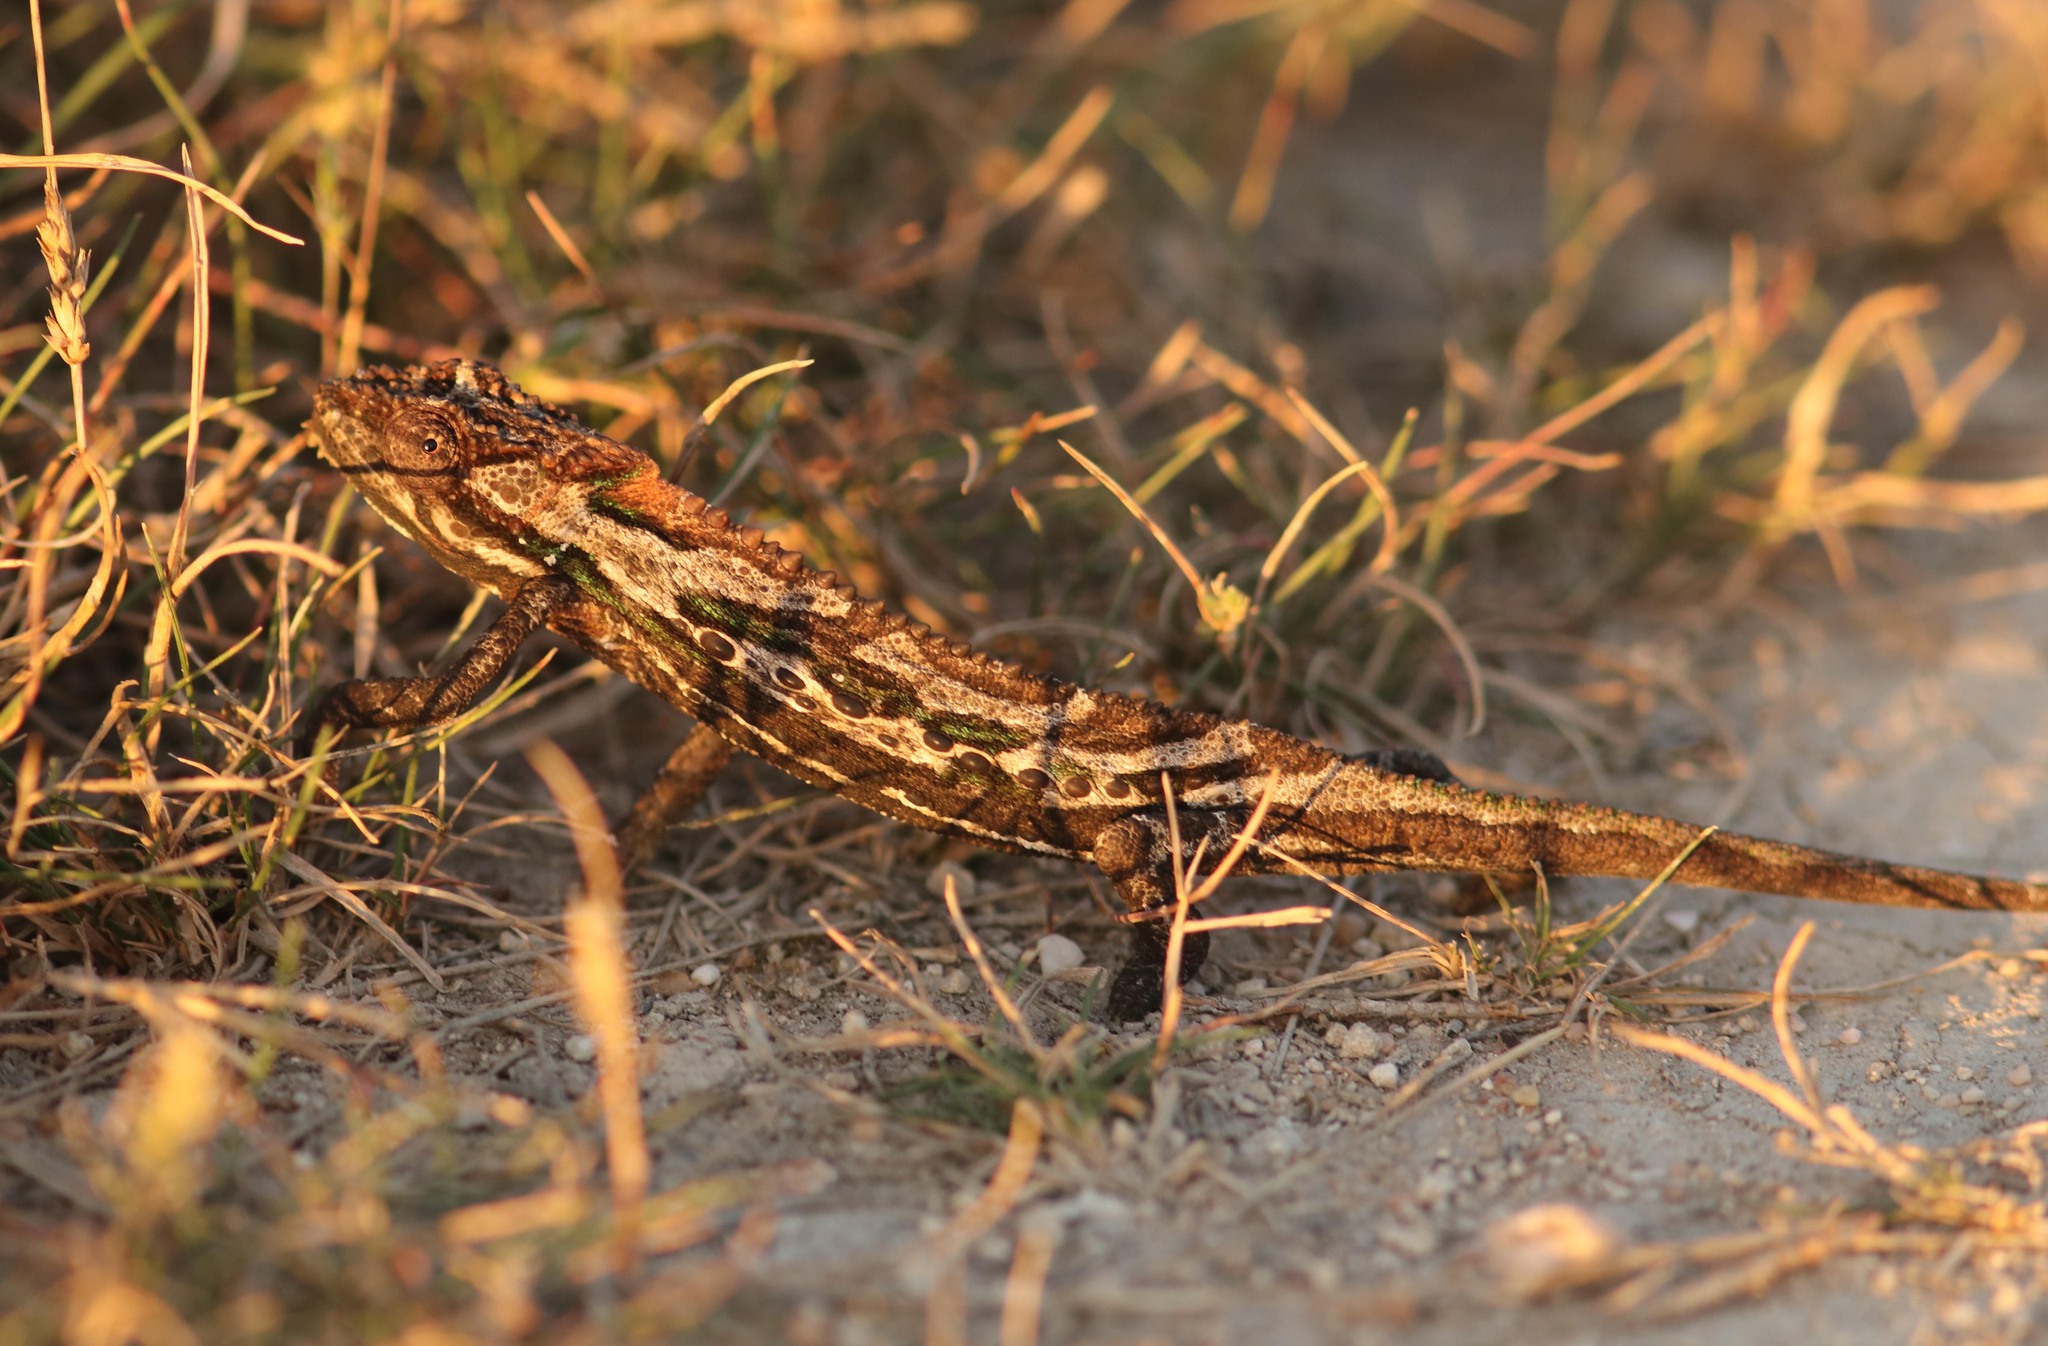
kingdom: Animalia
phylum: Chordata
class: Squamata
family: Chamaeleonidae
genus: Bradypodion
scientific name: Bradypodion gutturale
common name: Little karoo dwarf chameleon
